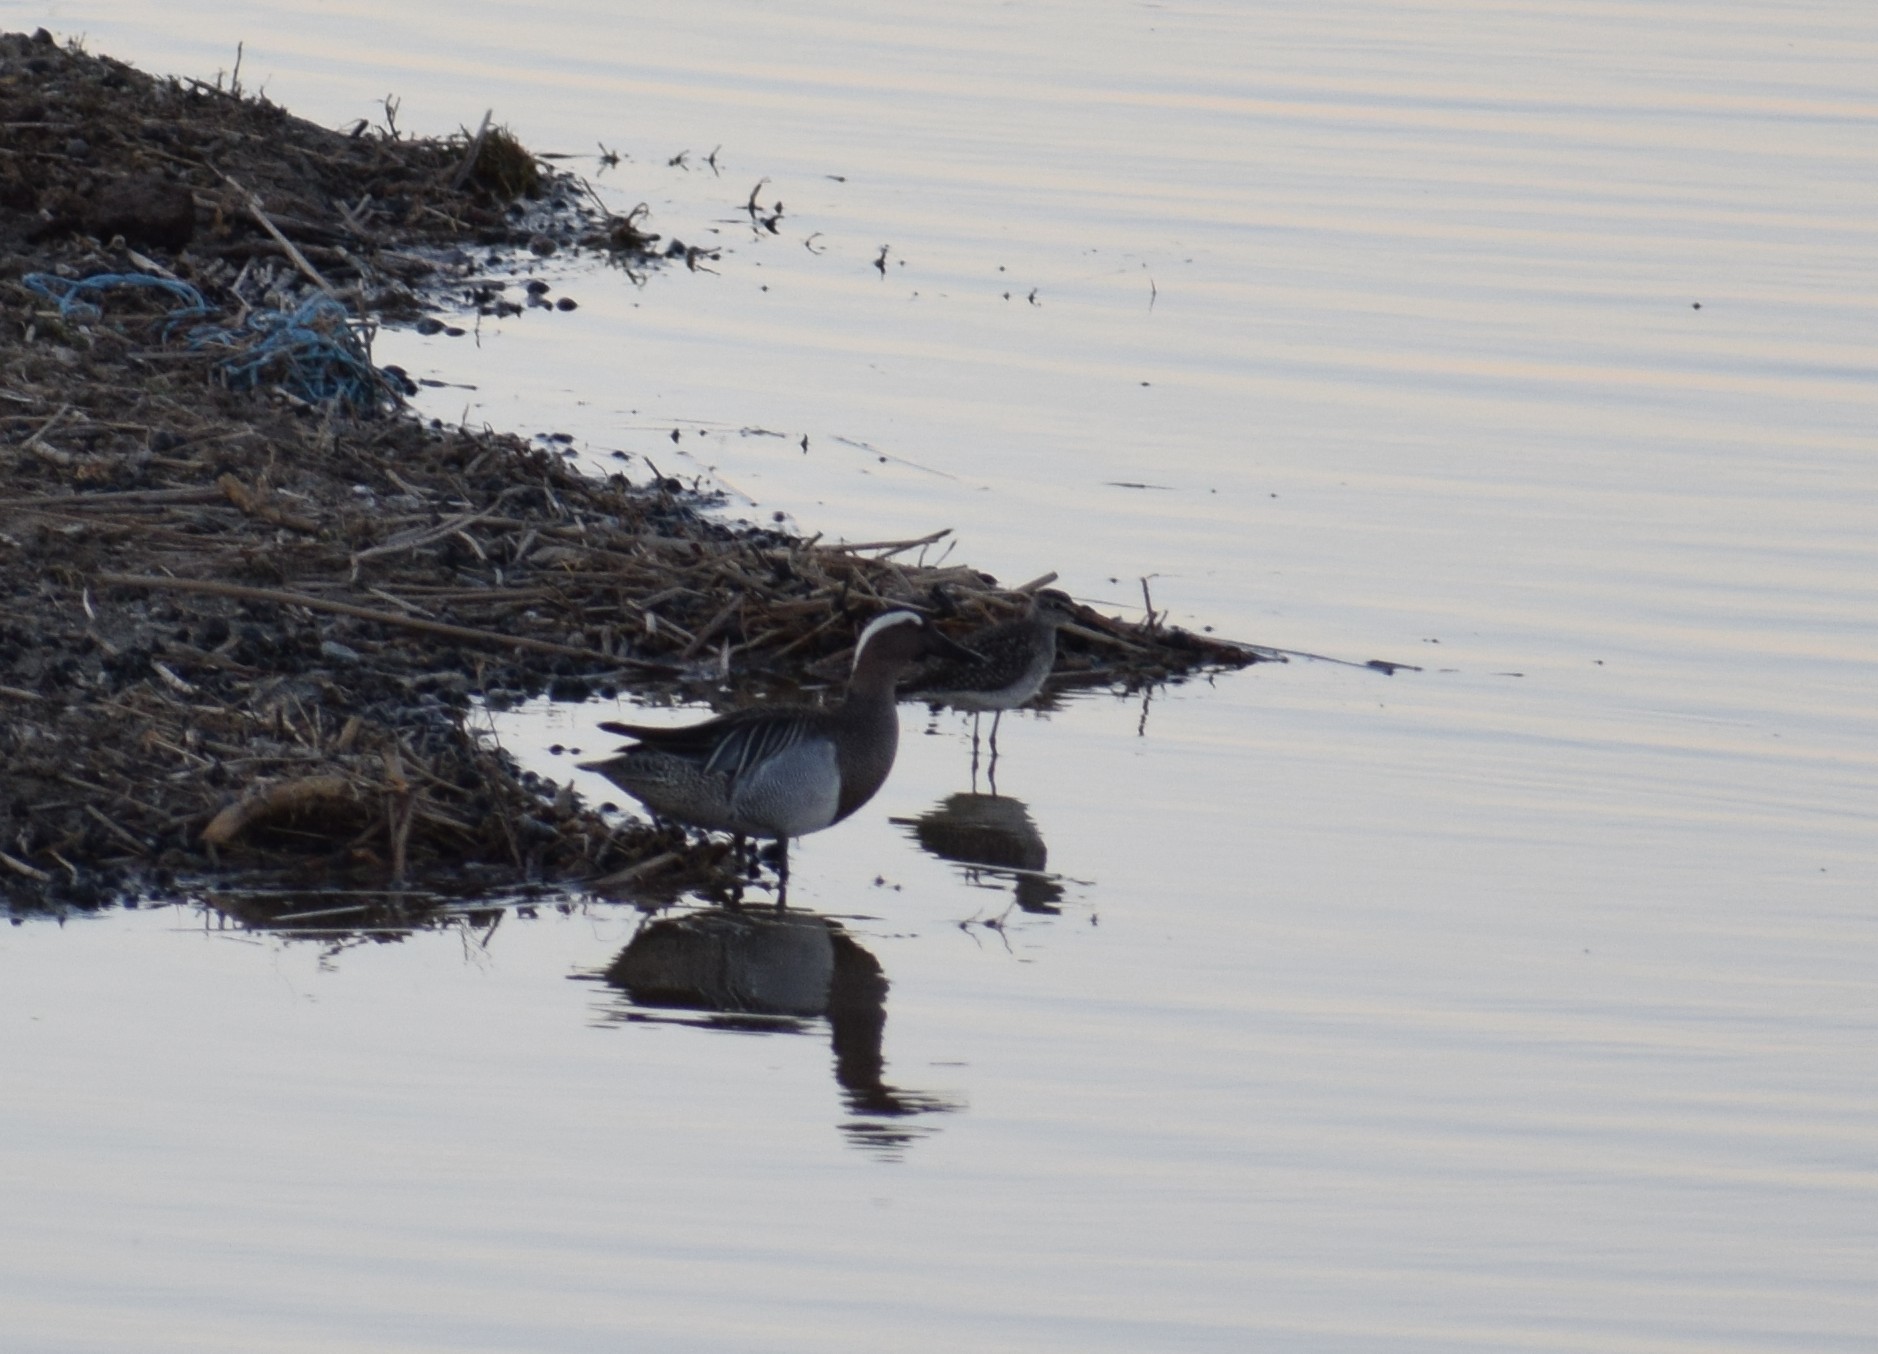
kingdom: Animalia
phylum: Chordata
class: Aves
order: Anseriformes
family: Anatidae
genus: Spatula
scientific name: Spatula querquedula
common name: Garganey
